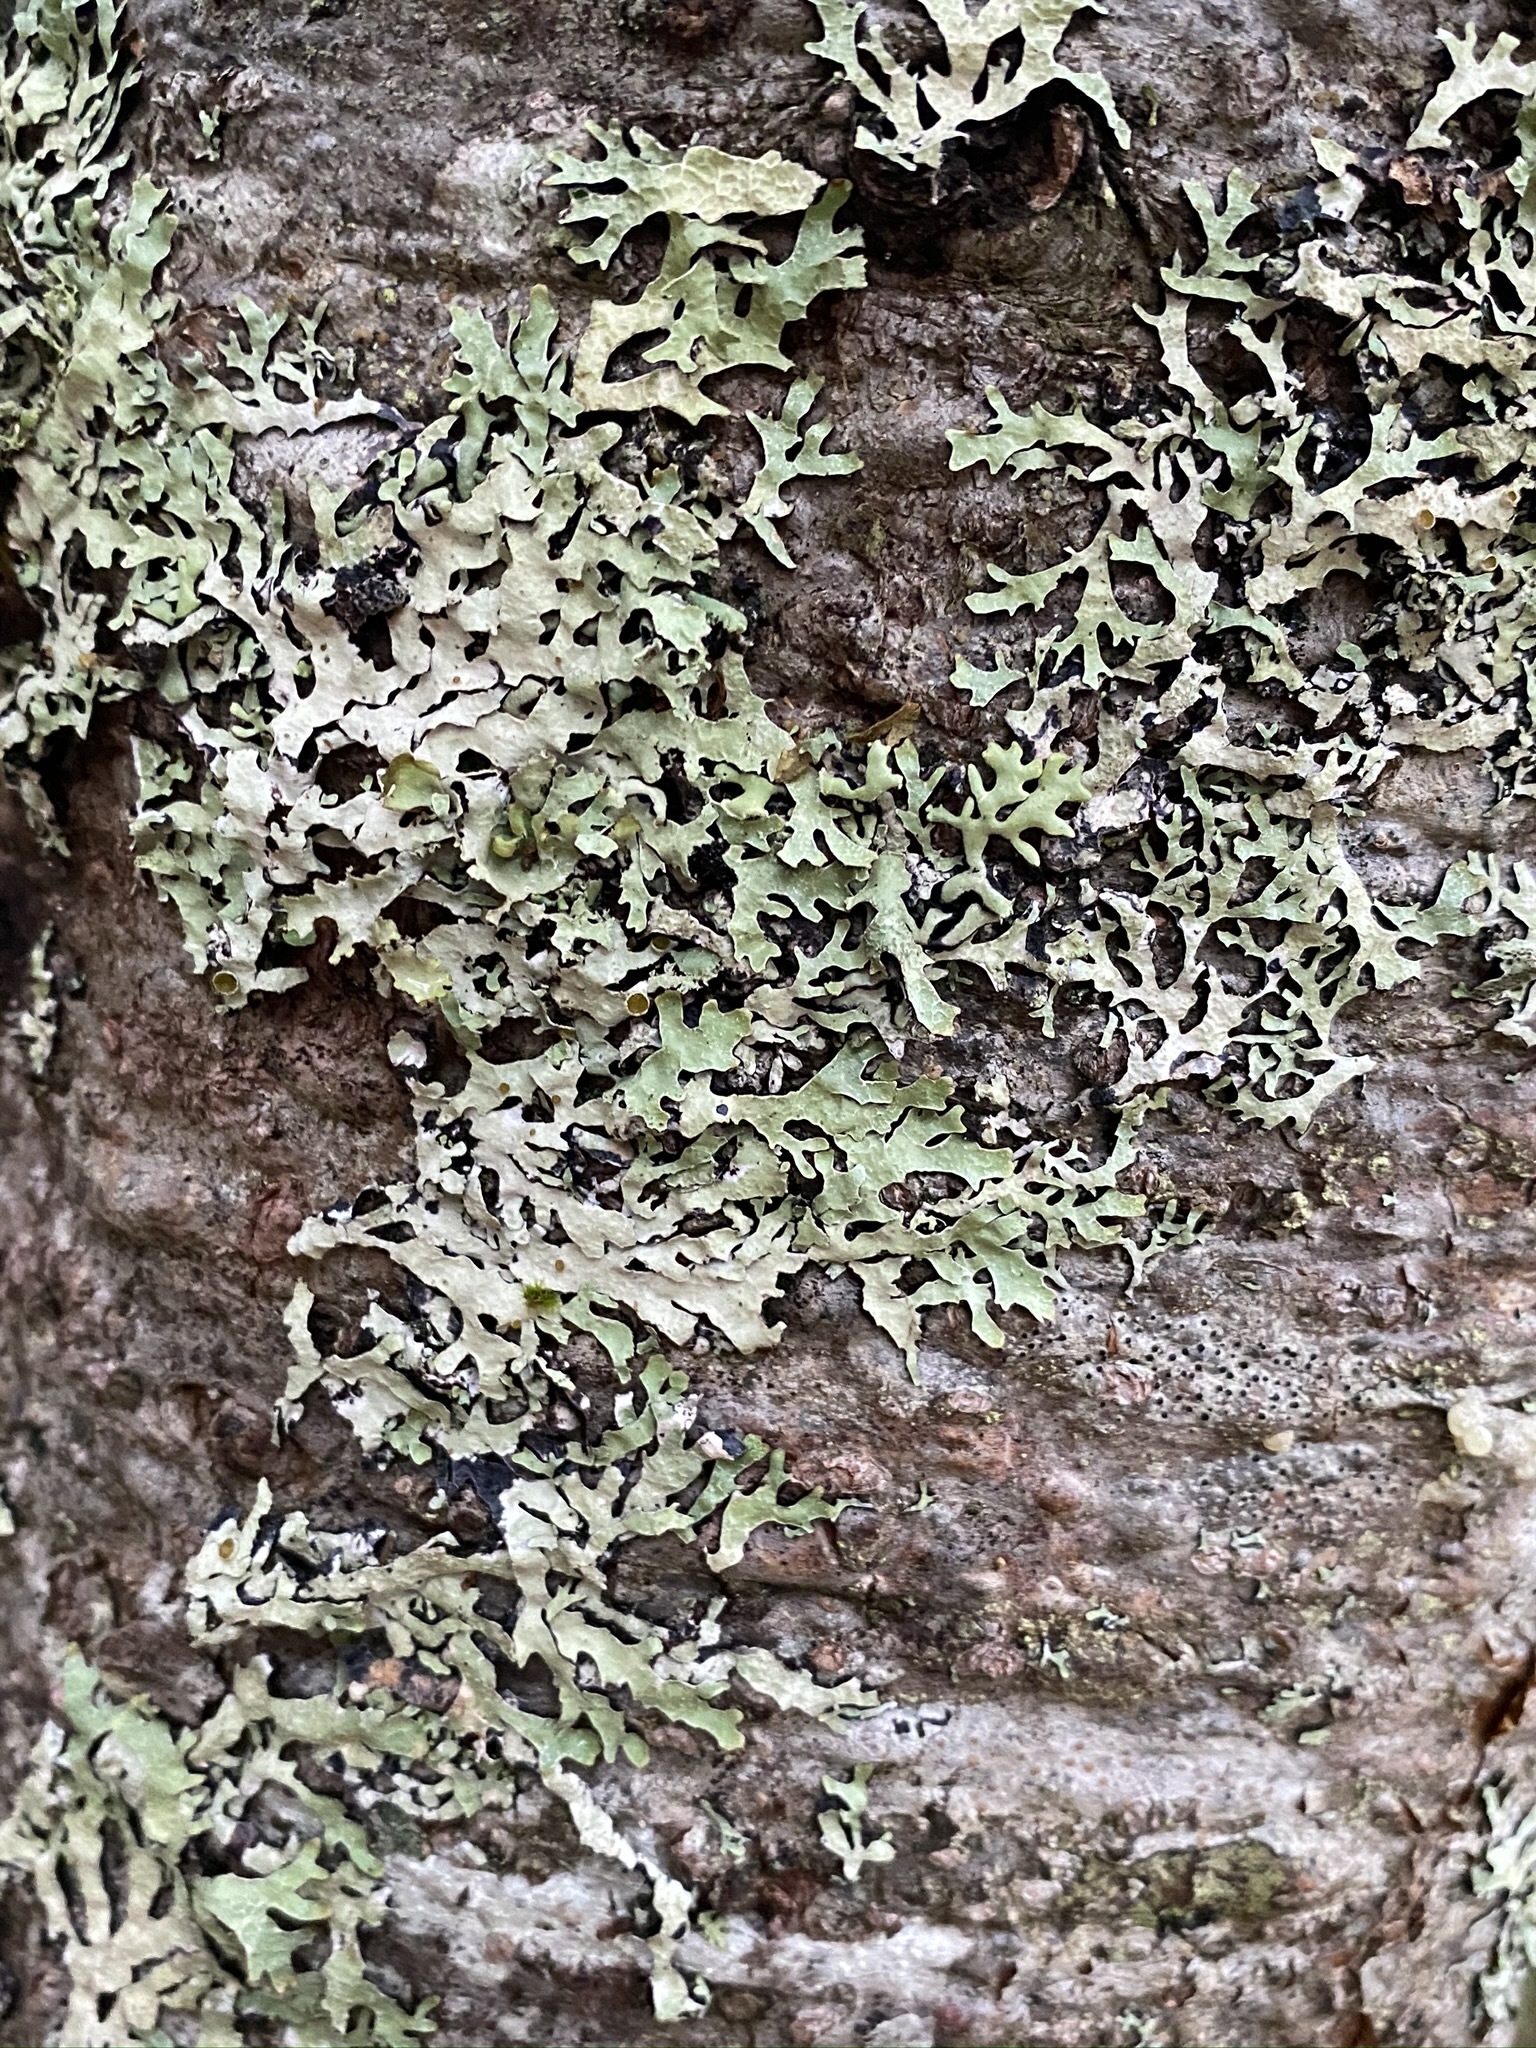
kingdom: Fungi
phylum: Ascomycota
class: Lecanoromycetes
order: Lecanorales
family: Parmeliaceae
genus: Parmelia
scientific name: Parmelia sulcata
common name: Netted shield lichen
